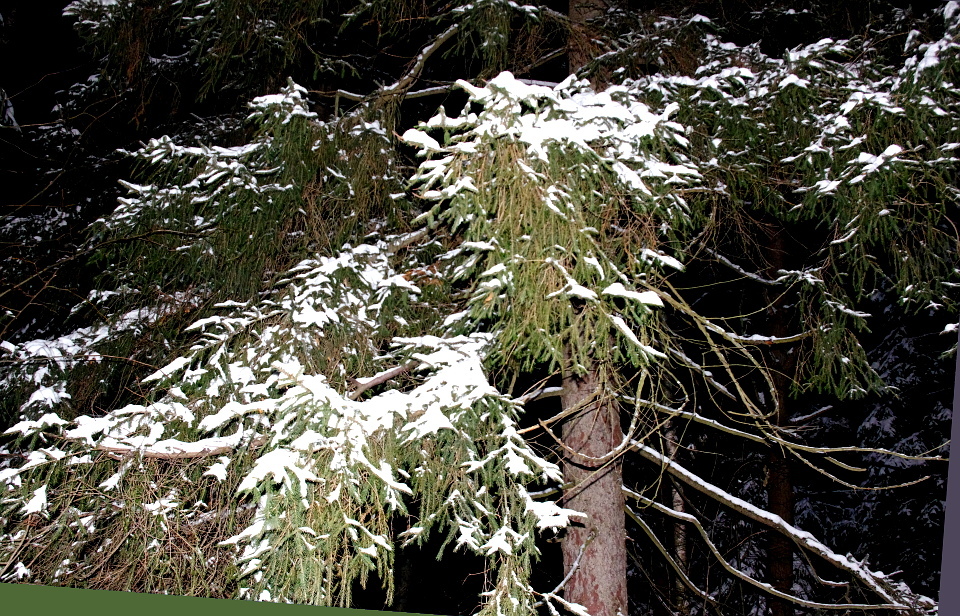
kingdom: Plantae
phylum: Tracheophyta
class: Pinopsida
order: Pinales
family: Pinaceae
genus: Picea
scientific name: Picea abies
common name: Norway spruce
